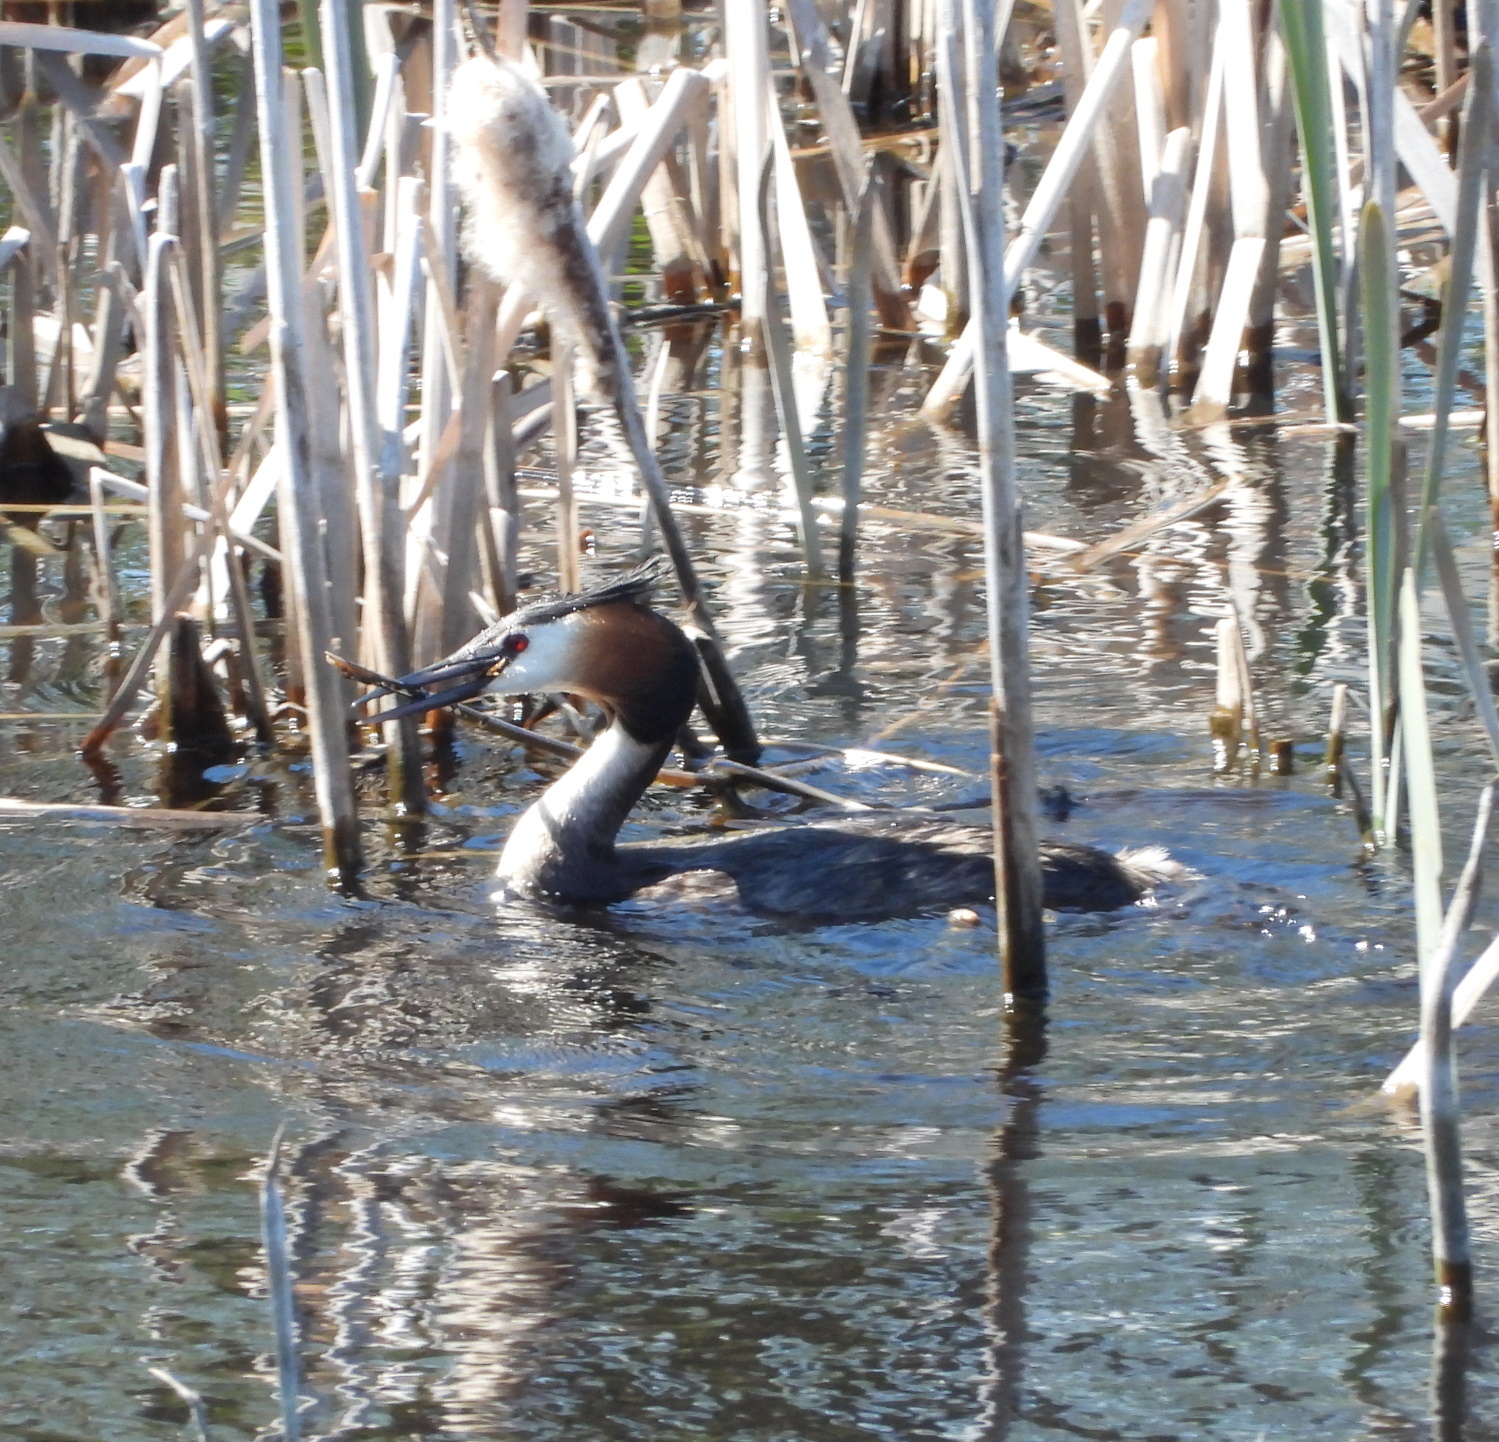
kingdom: Animalia
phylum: Chordata
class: Aves
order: Podicipediformes
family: Podicipedidae
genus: Podiceps
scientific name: Podiceps cristatus
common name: Great crested grebe
